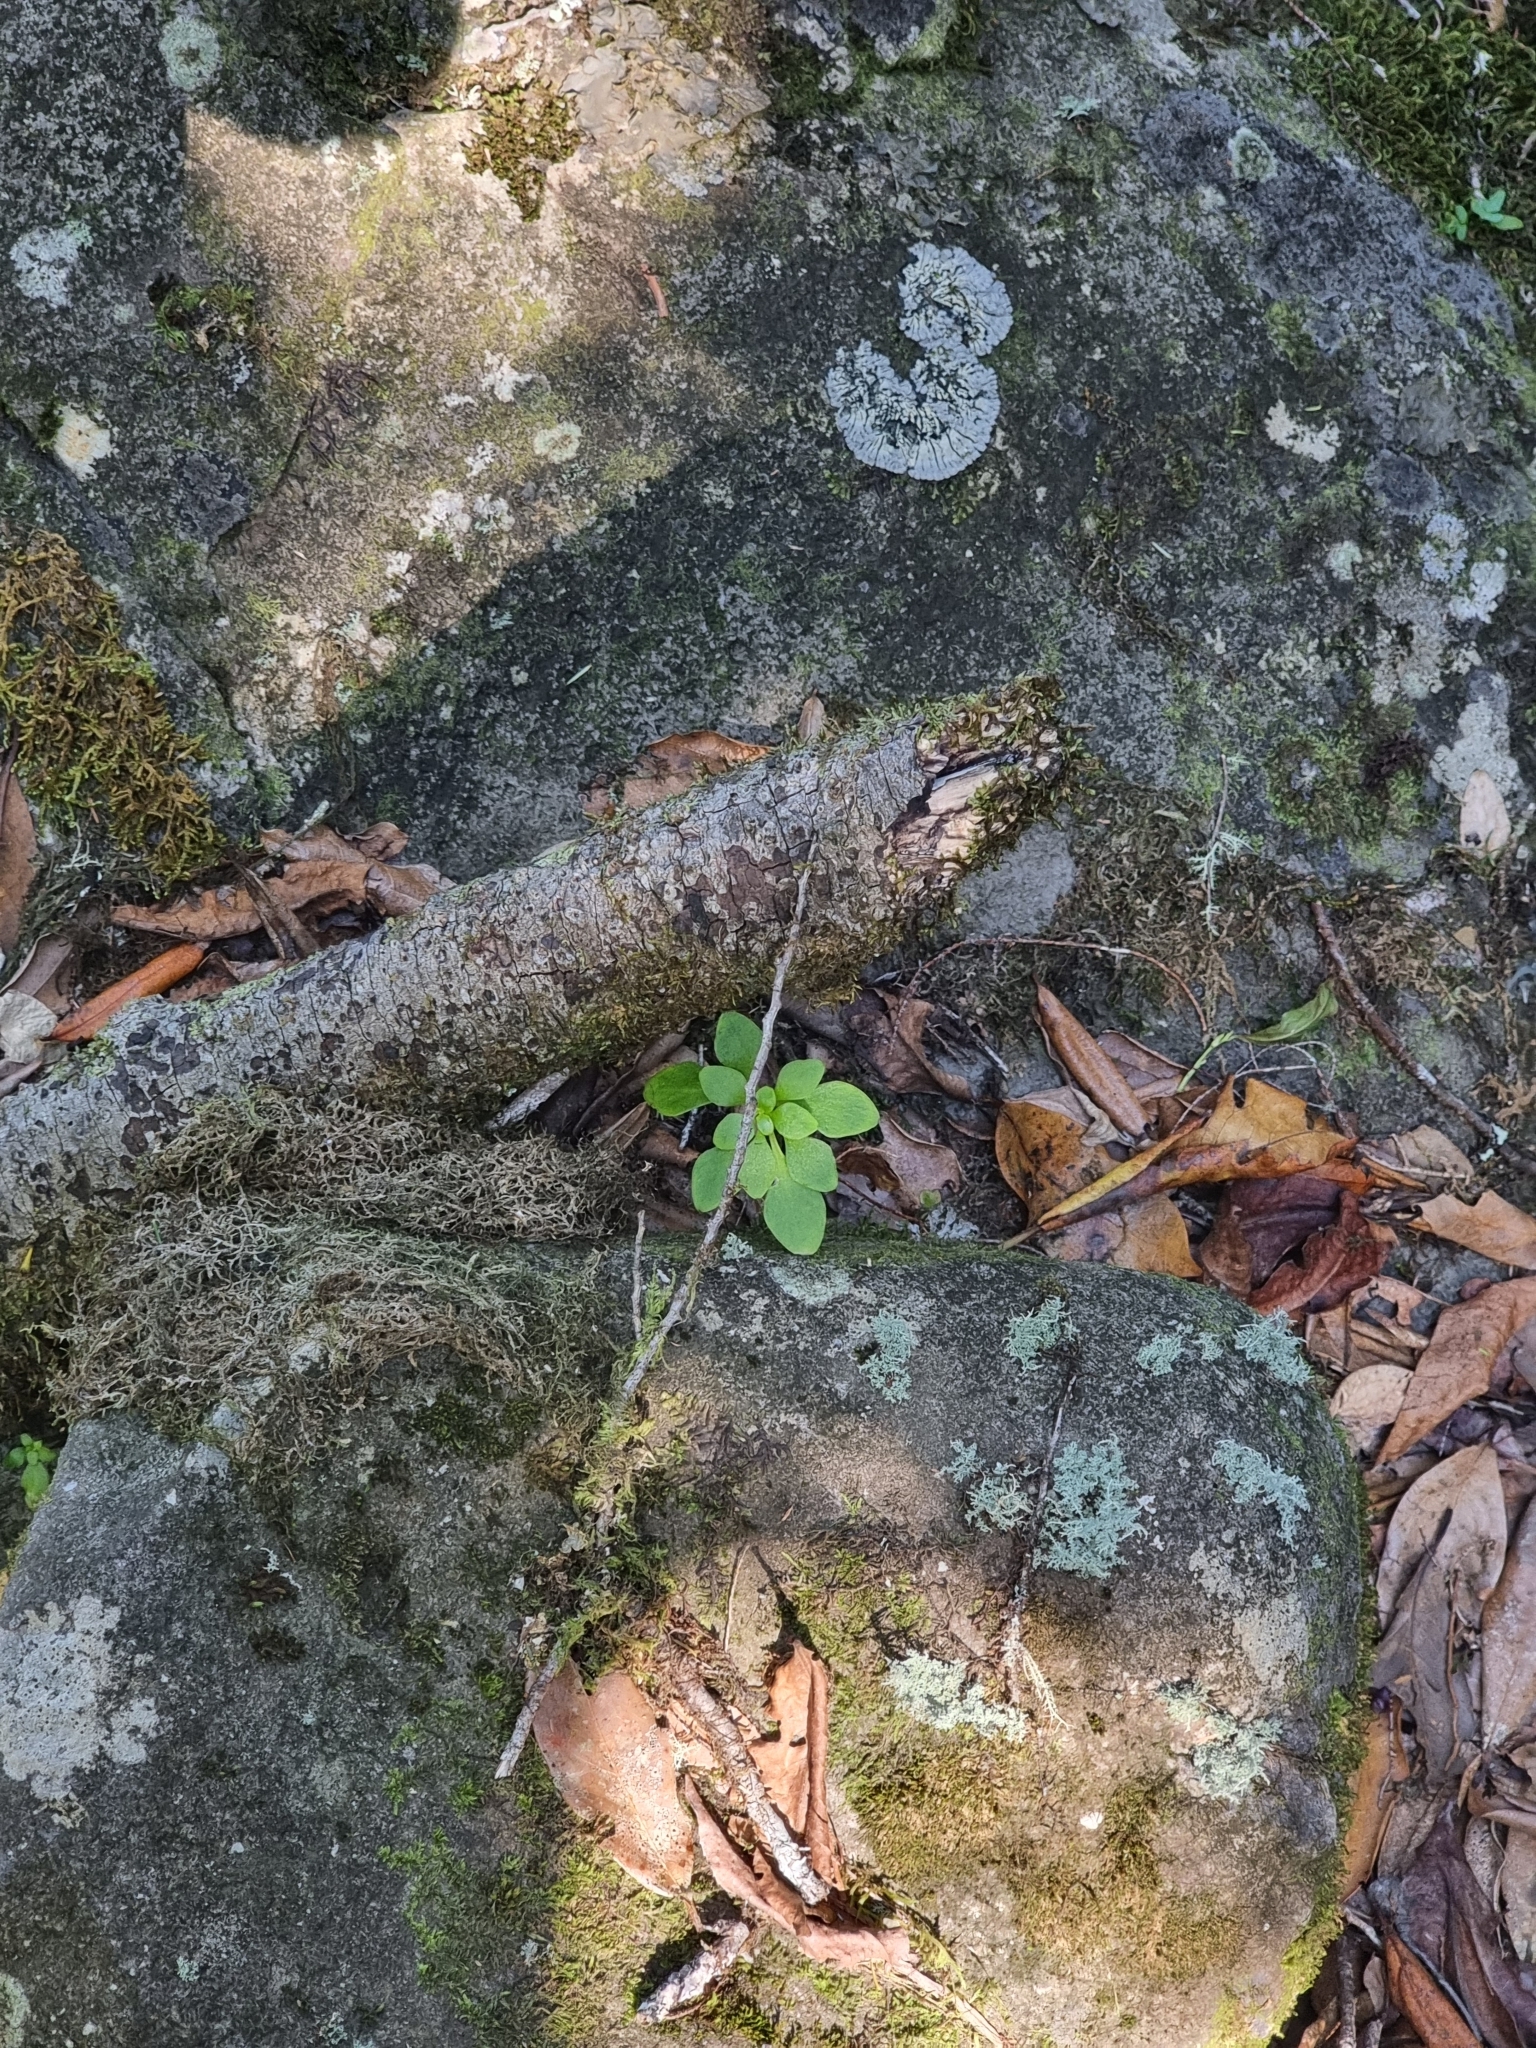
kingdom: Plantae
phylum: Tracheophyta
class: Magnoliopsida
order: Saxifragales
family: Crassulaceae
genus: Aichryson
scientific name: Aichryson divaricatum
